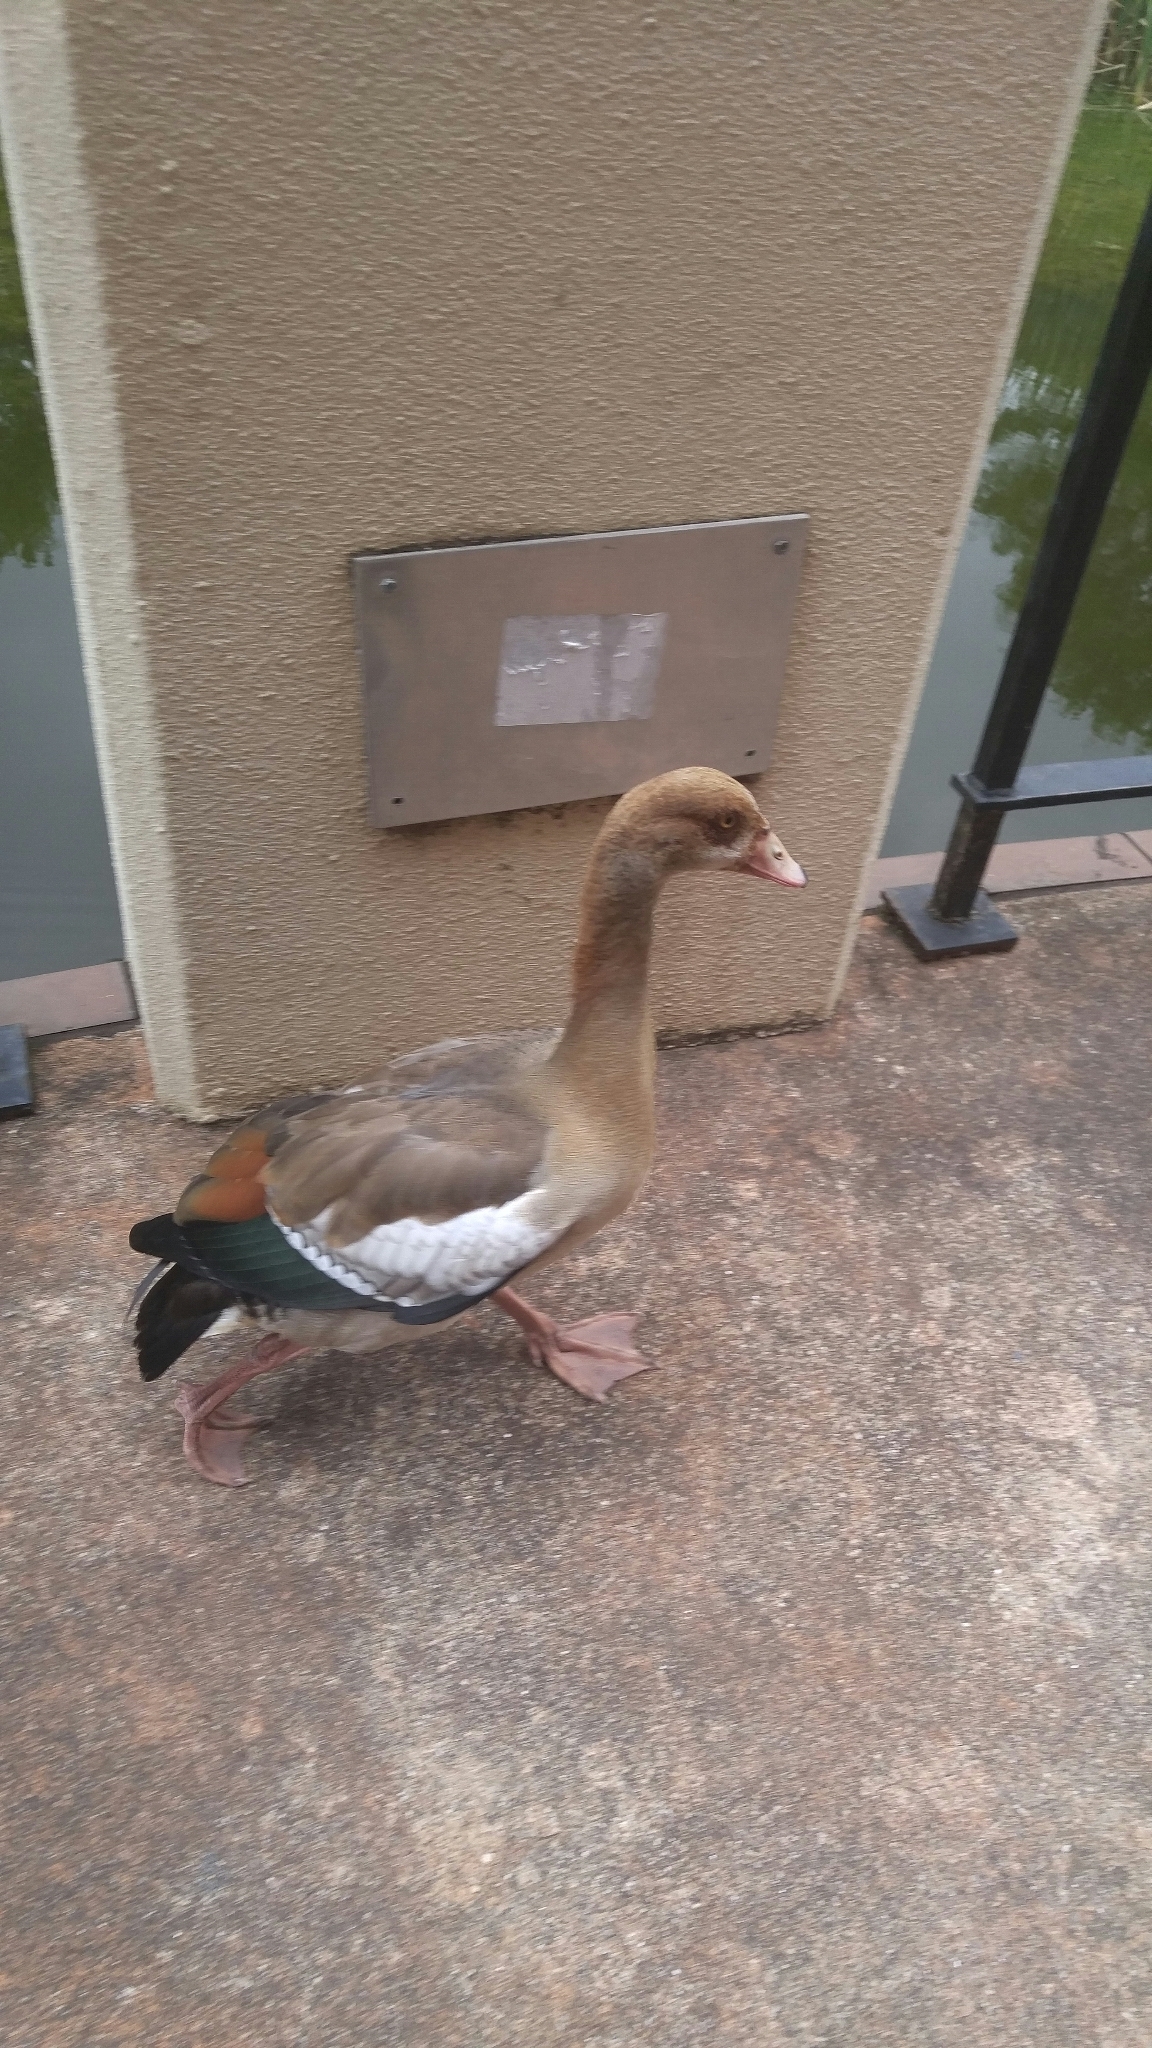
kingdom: Animalia
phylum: Chordata
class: Aves
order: Anseriformes
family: Anatidae
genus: Alopochen
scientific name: Alopochen aegyptiaca
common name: Egyptian goose
